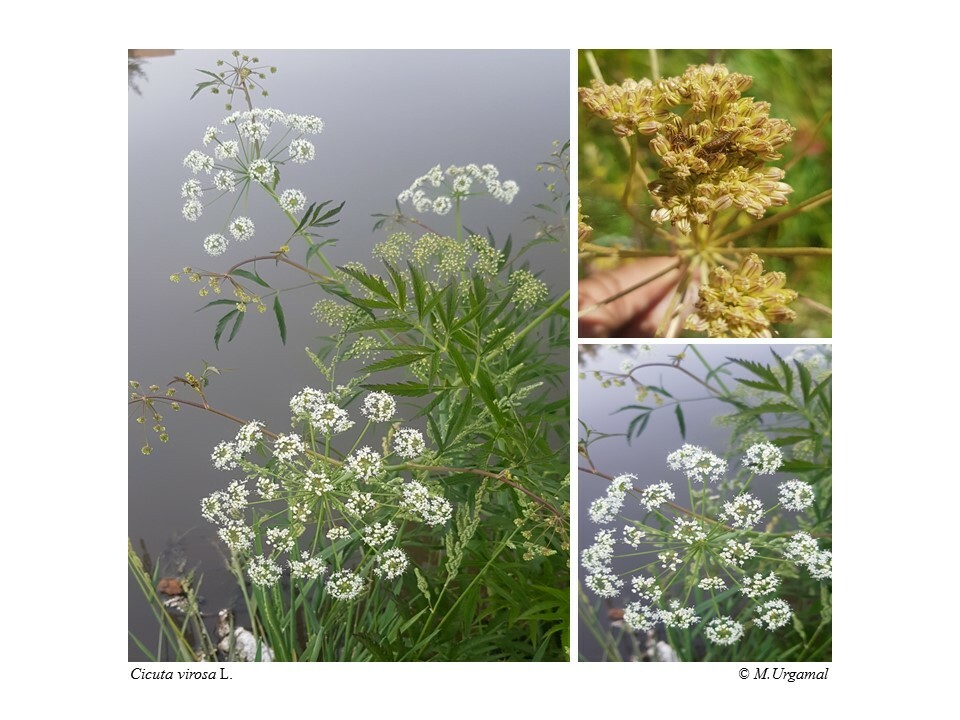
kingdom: Plantae
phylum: Tracheophyta
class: Magnoliopsida
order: Apiales
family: Apiaceae
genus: Cicuta
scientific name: Cicuta virosa
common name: Cowbane
